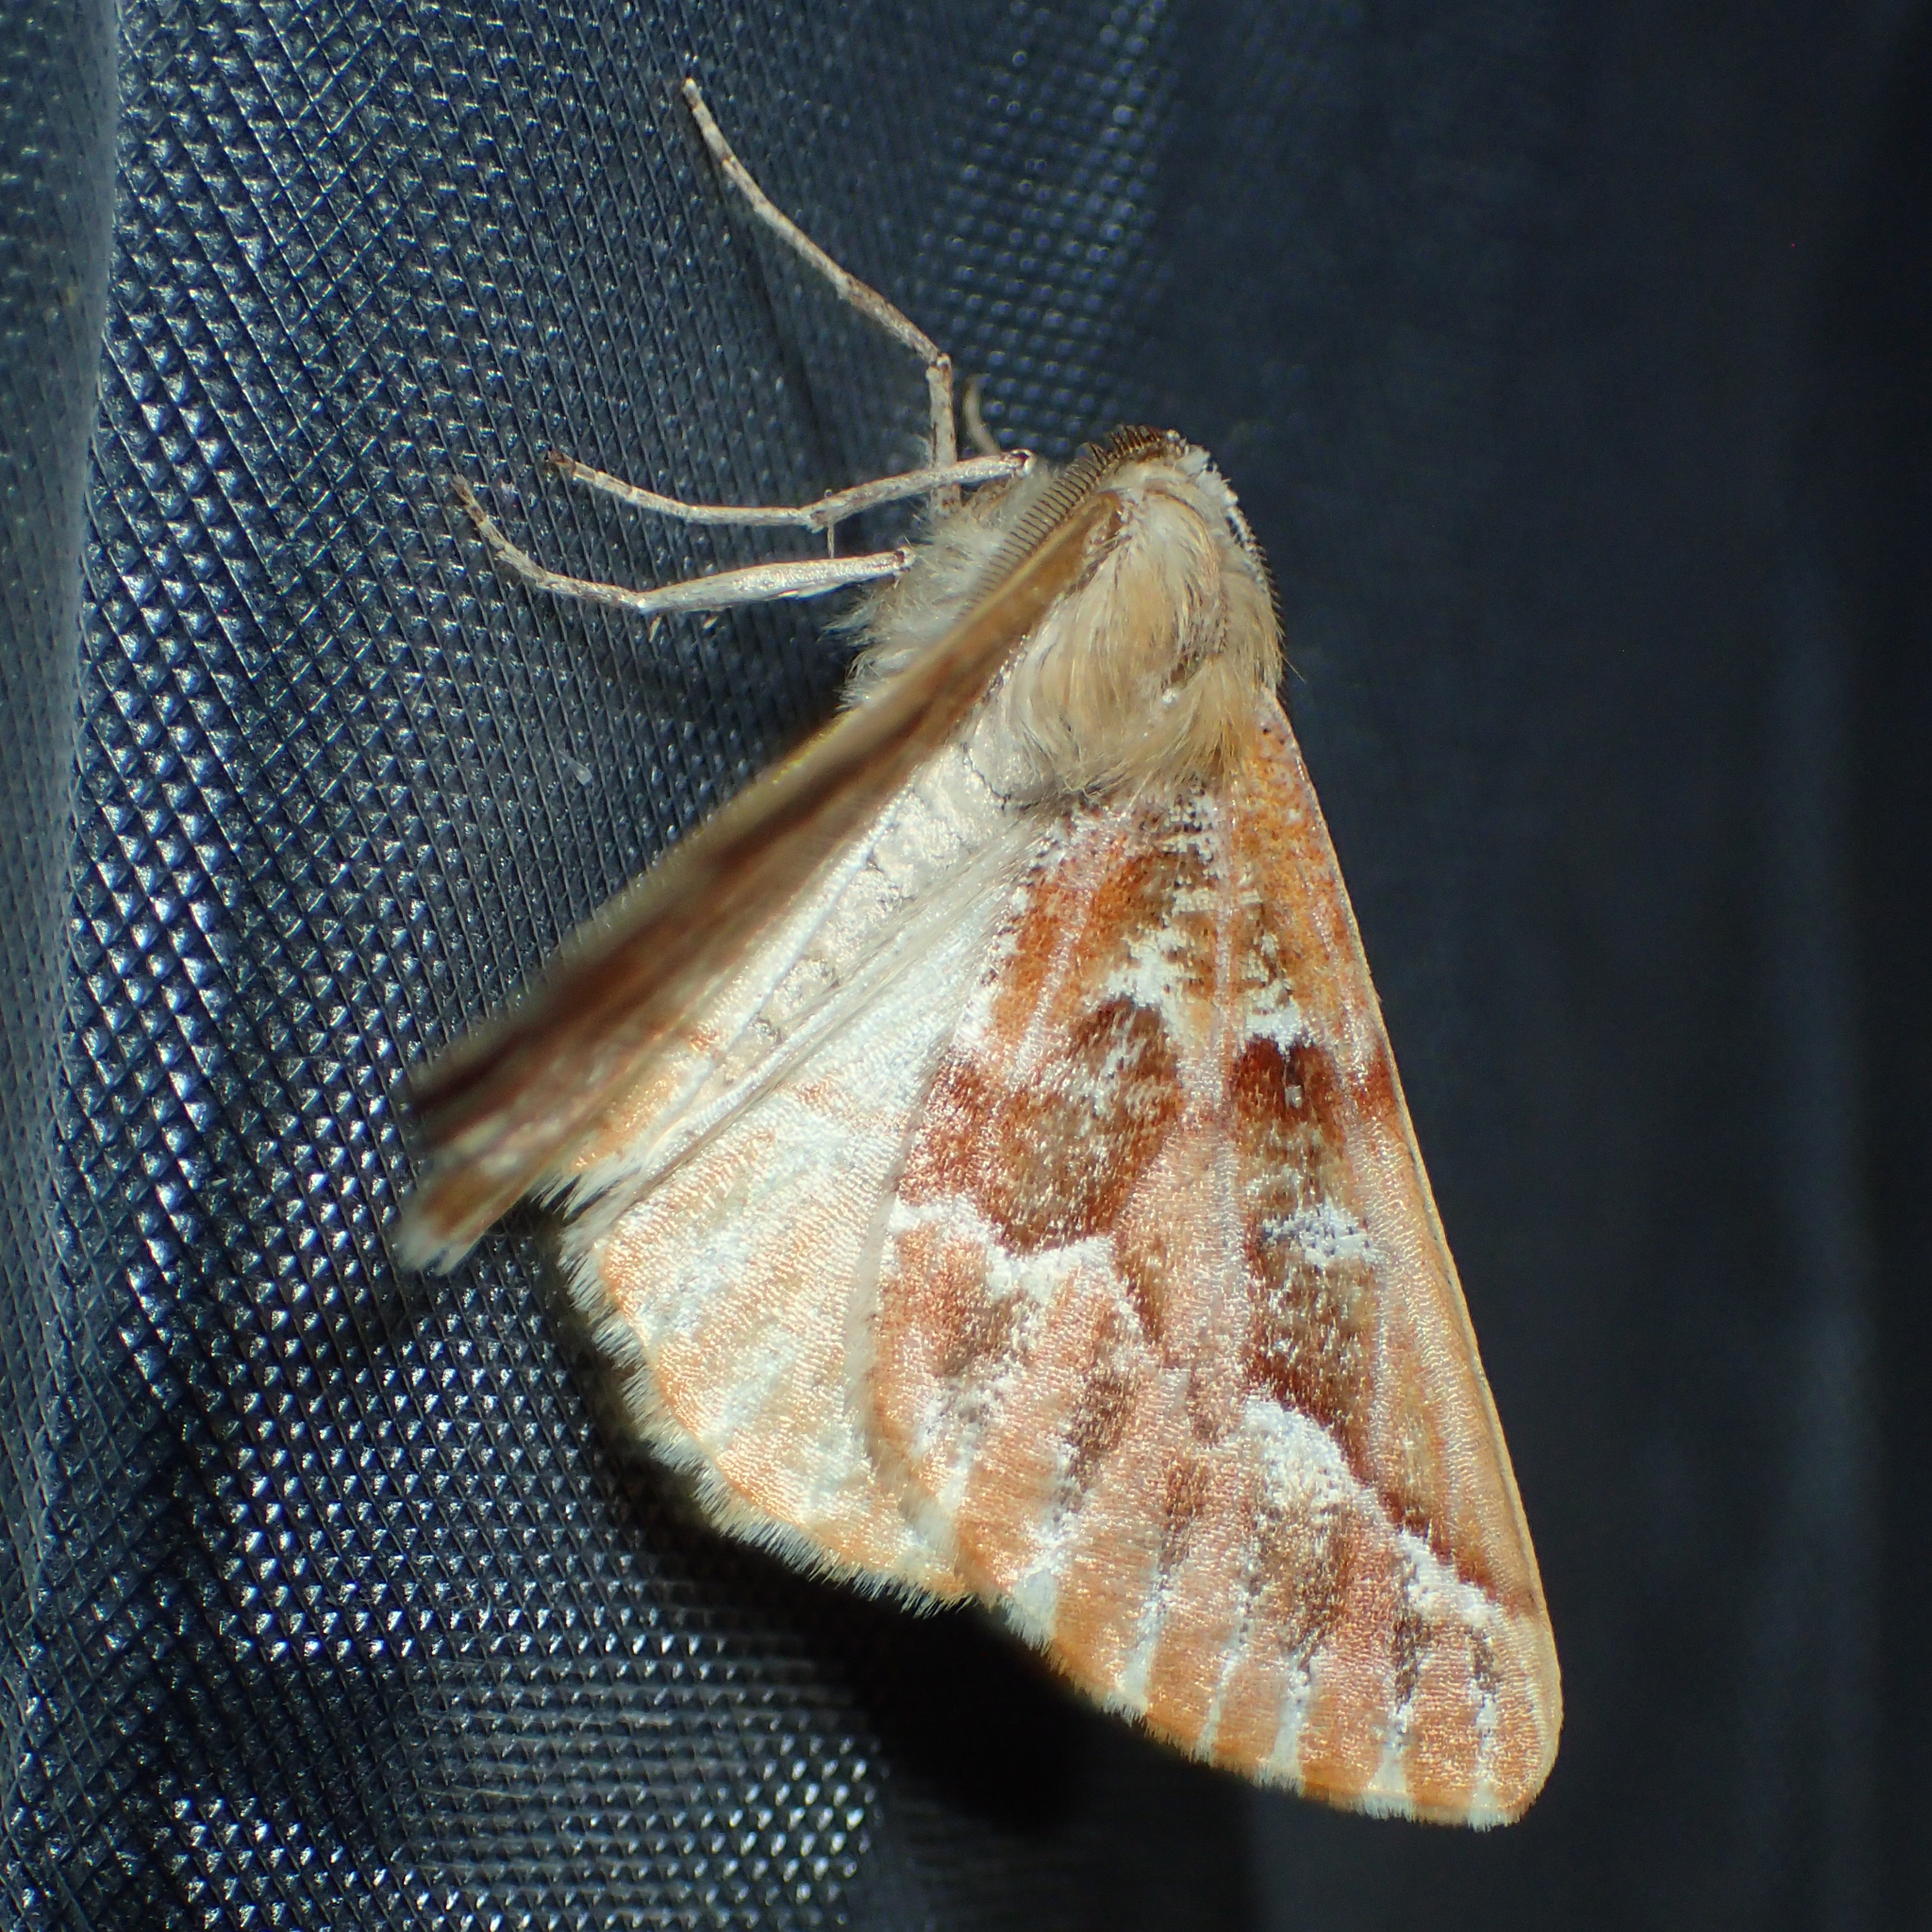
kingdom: Animalia
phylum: Arthropoda
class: Insecta
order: Lepidoptera
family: Geometridae
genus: Caripeta
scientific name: Caripeta aequaliaria
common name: Red girdle moth
